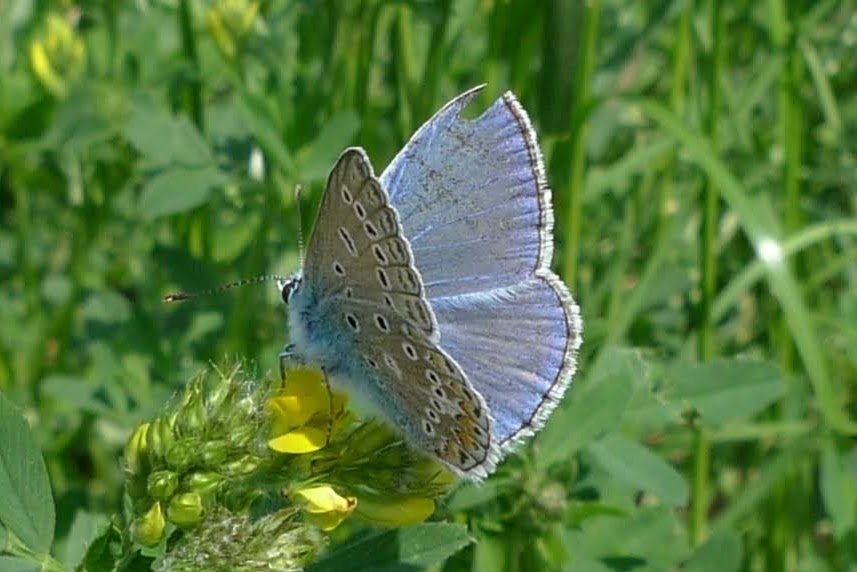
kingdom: Animalia
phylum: Arthropoda
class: Insecta
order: Lepidoptera
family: Lycaenidae
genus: Polyommatus
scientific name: Polyommatus icarus
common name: Common blue
